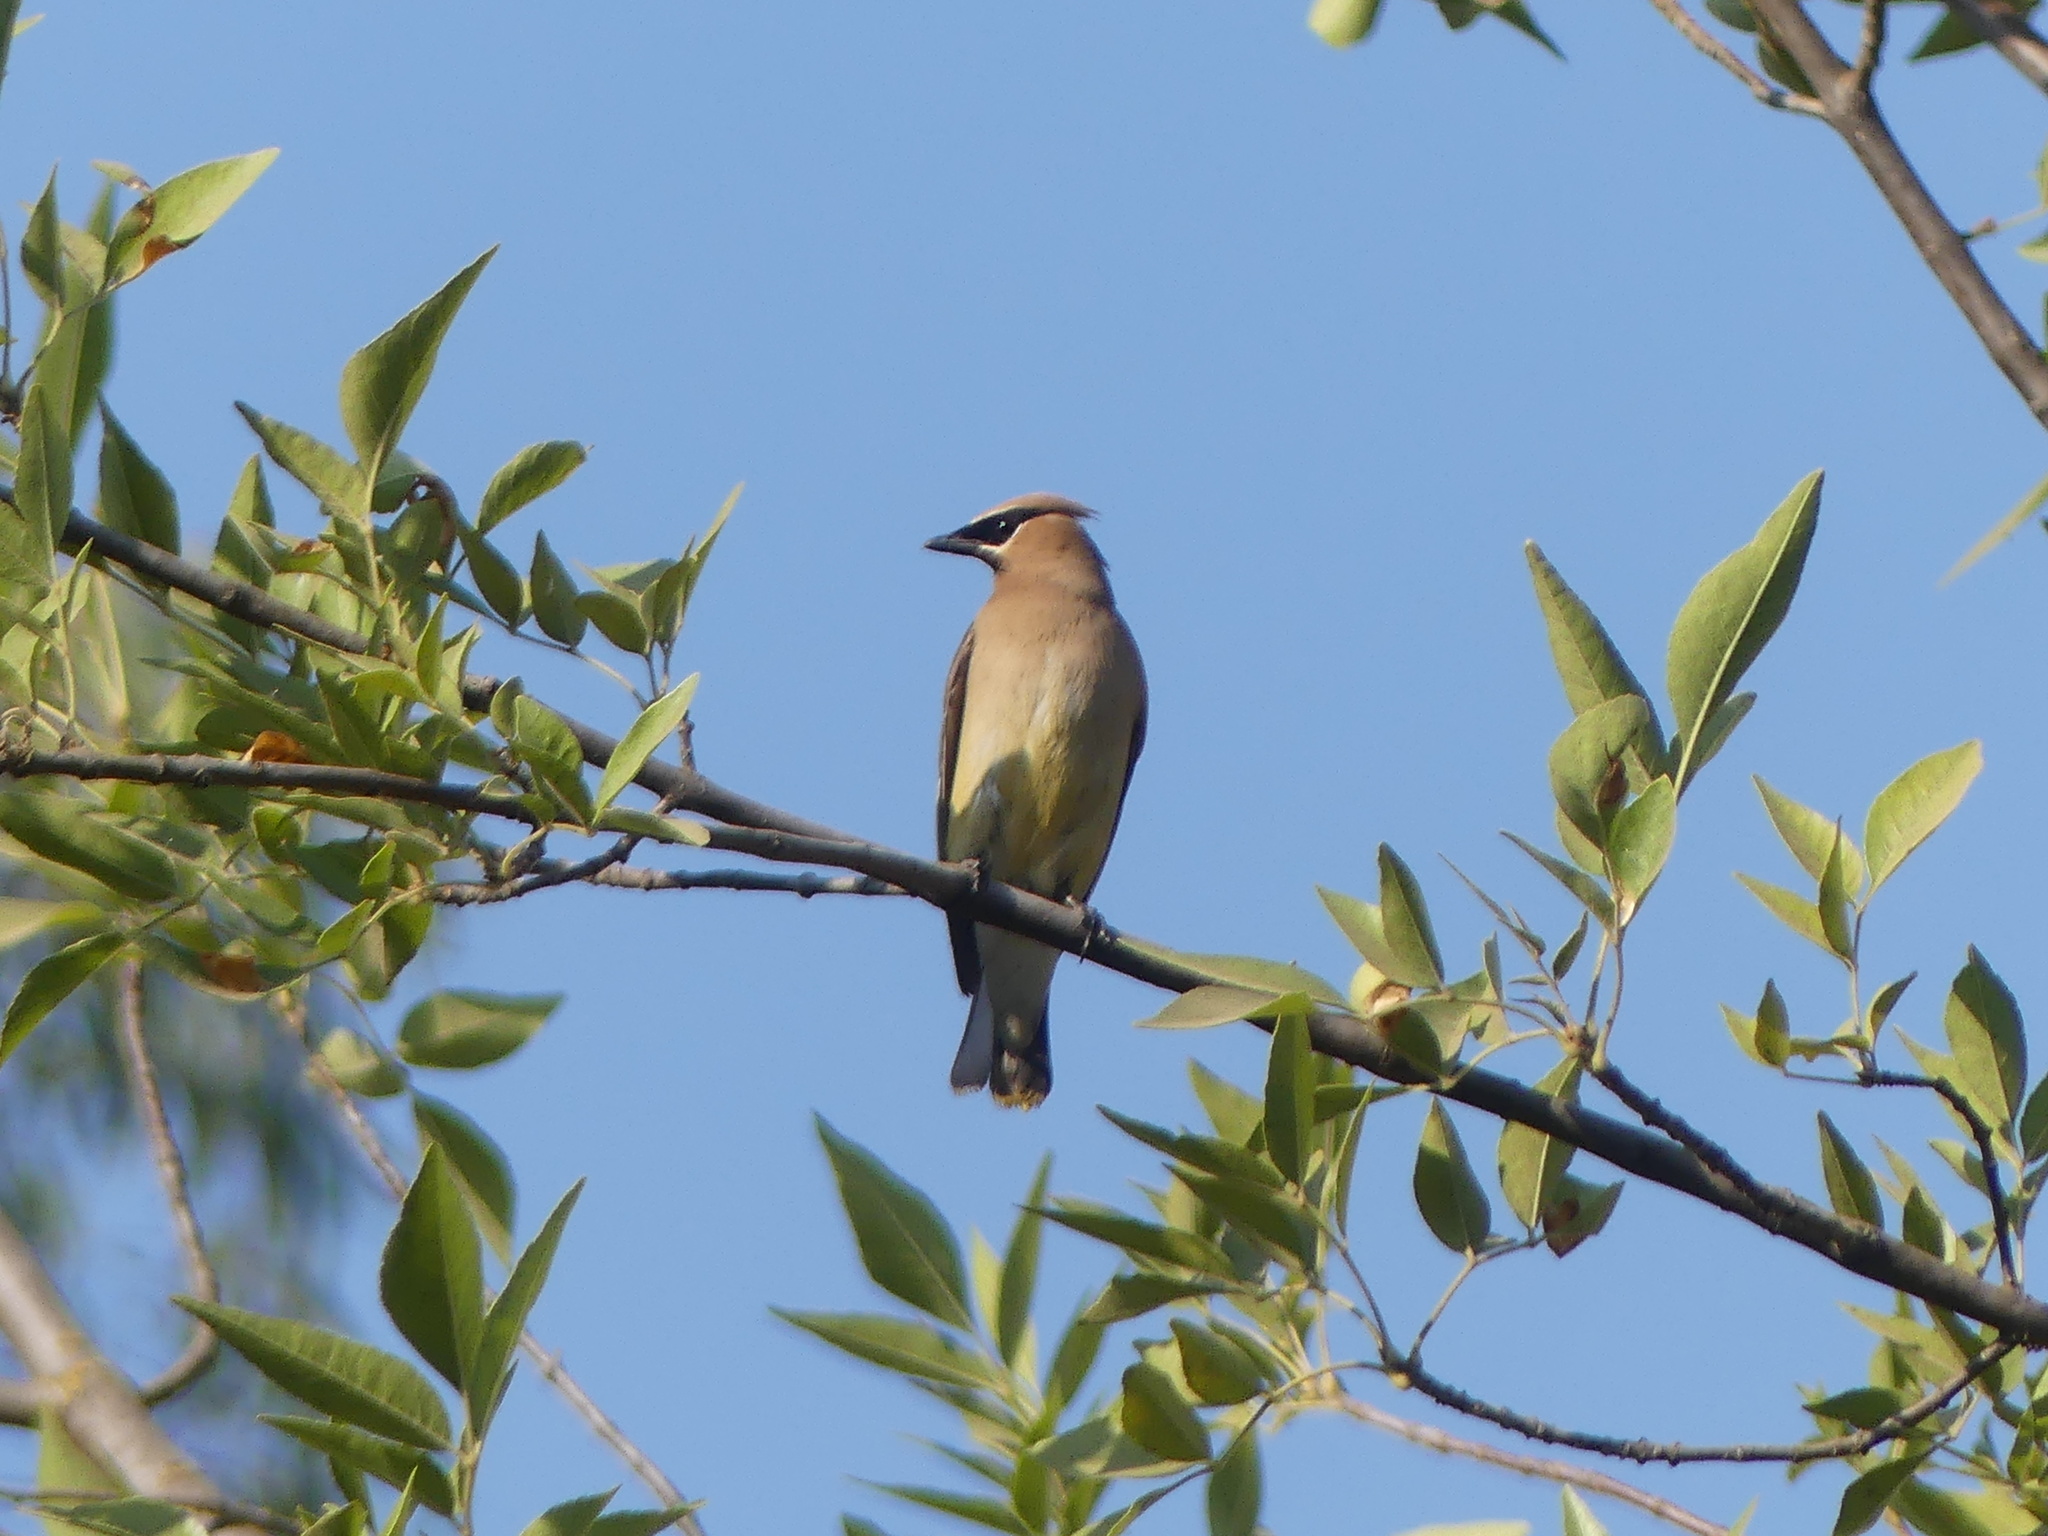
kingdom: Animalia
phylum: Chordata
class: Aves
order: Passeriformes
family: Bombycillidae
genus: Bombycilla
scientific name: Bombycilla cedrorum
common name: Cedar waxwing
